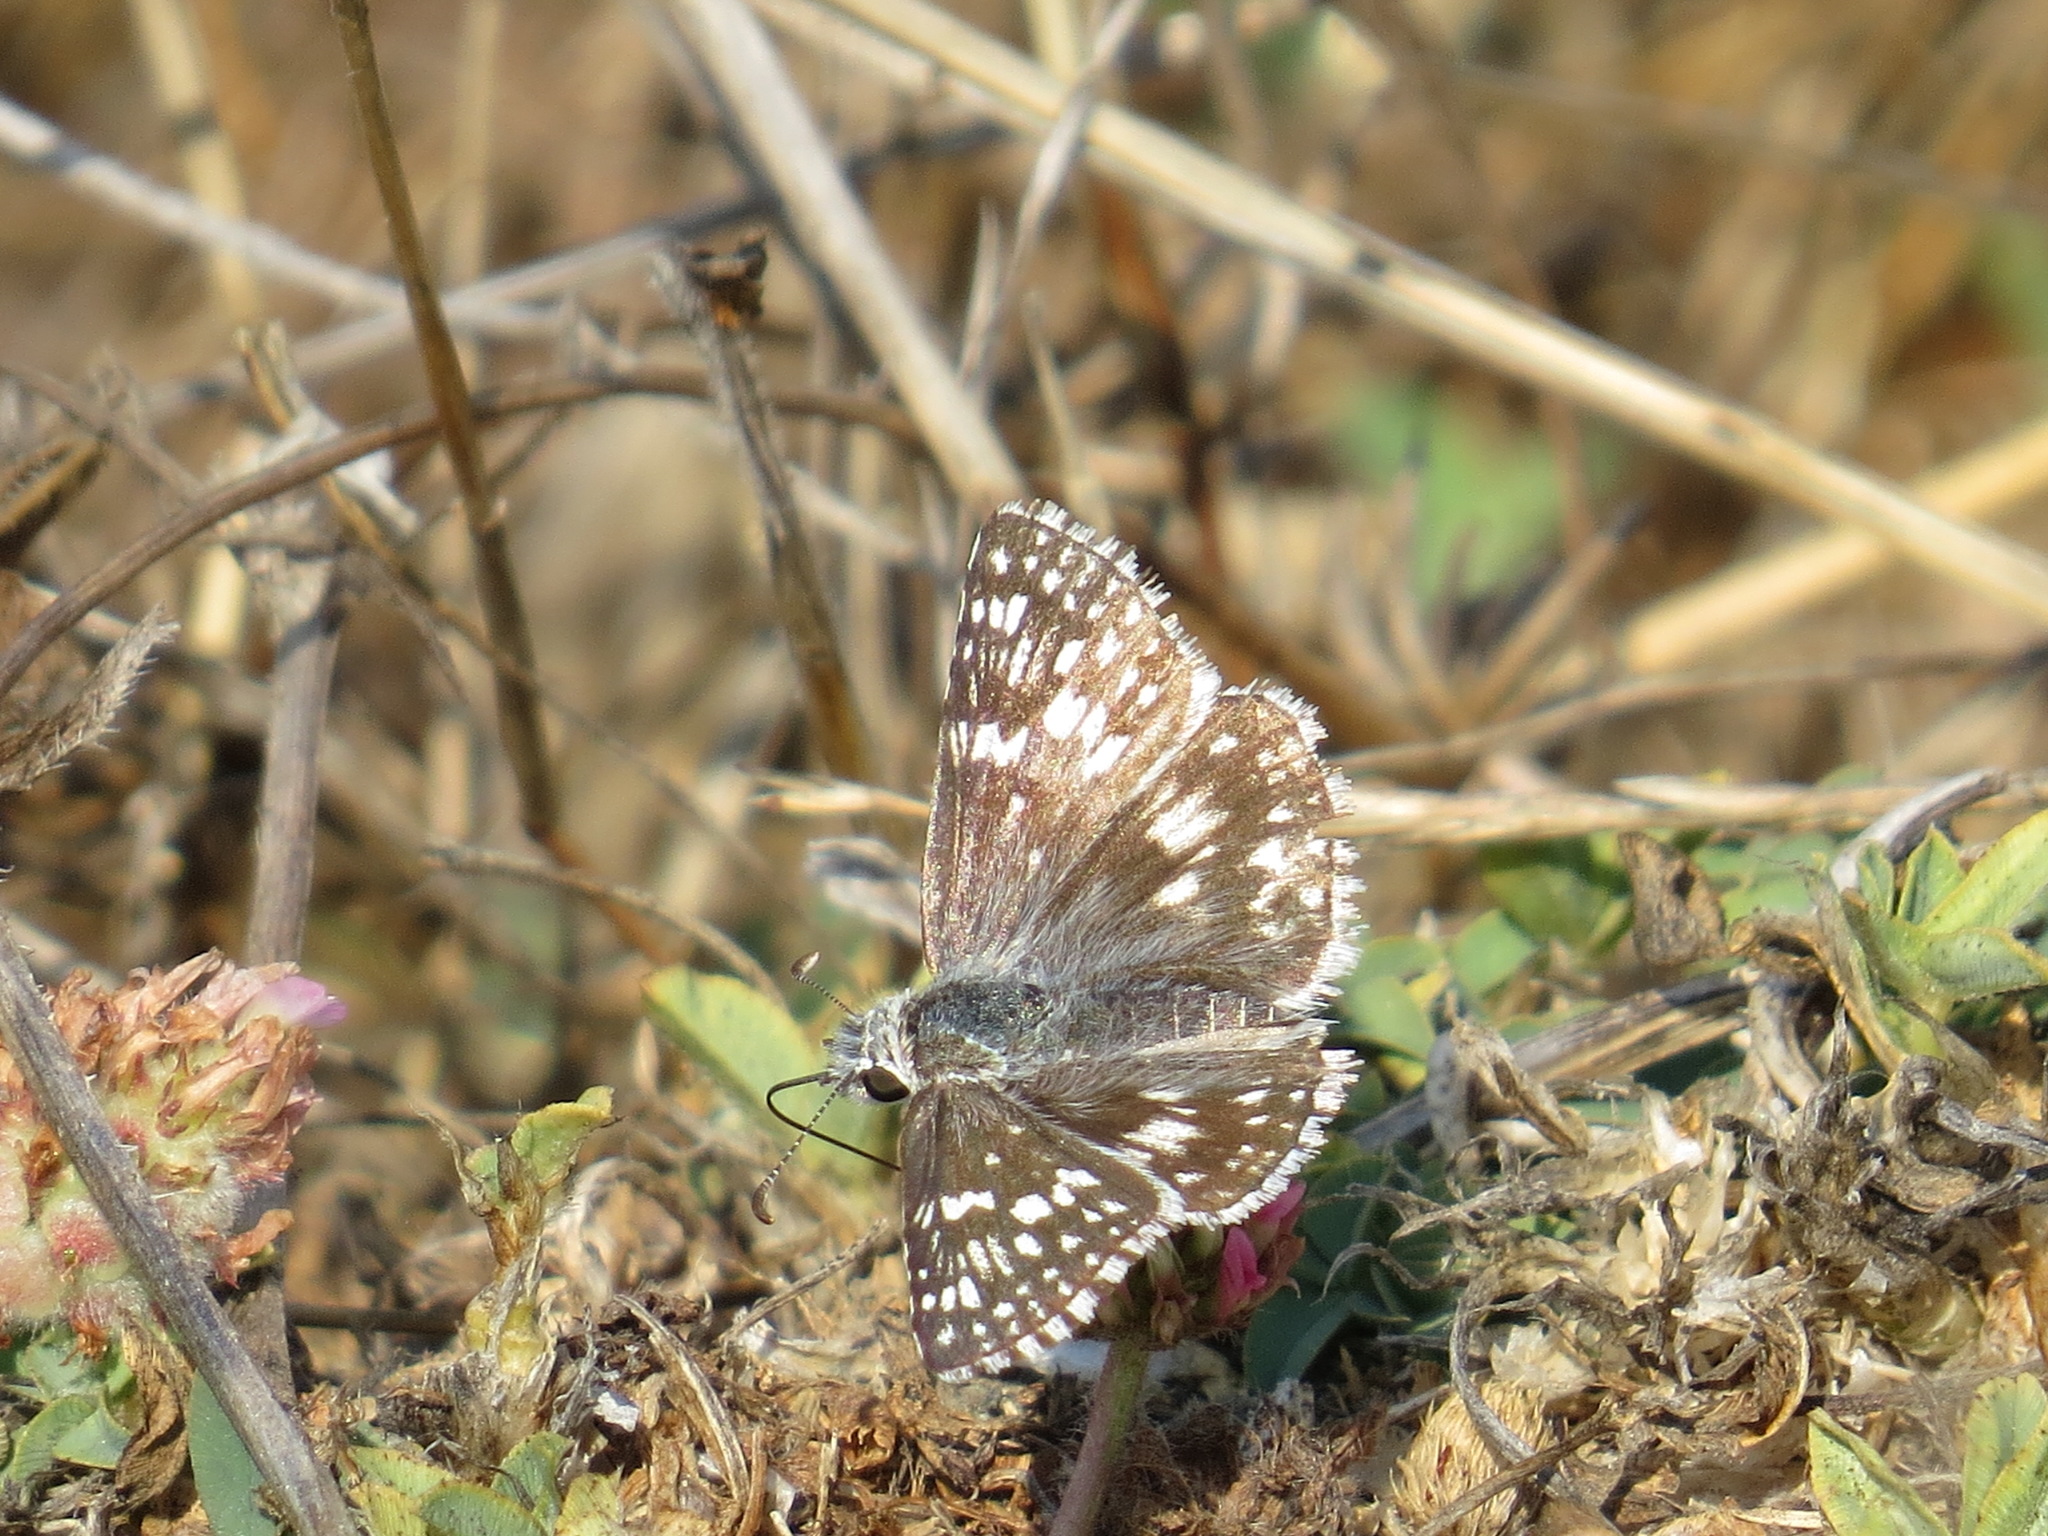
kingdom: Animalia
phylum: Arthropoda
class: Insecta
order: Lepidoptera
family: Hesperiidae
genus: Burnsius
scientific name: Burnsius communis
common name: Common checkered-skipper
